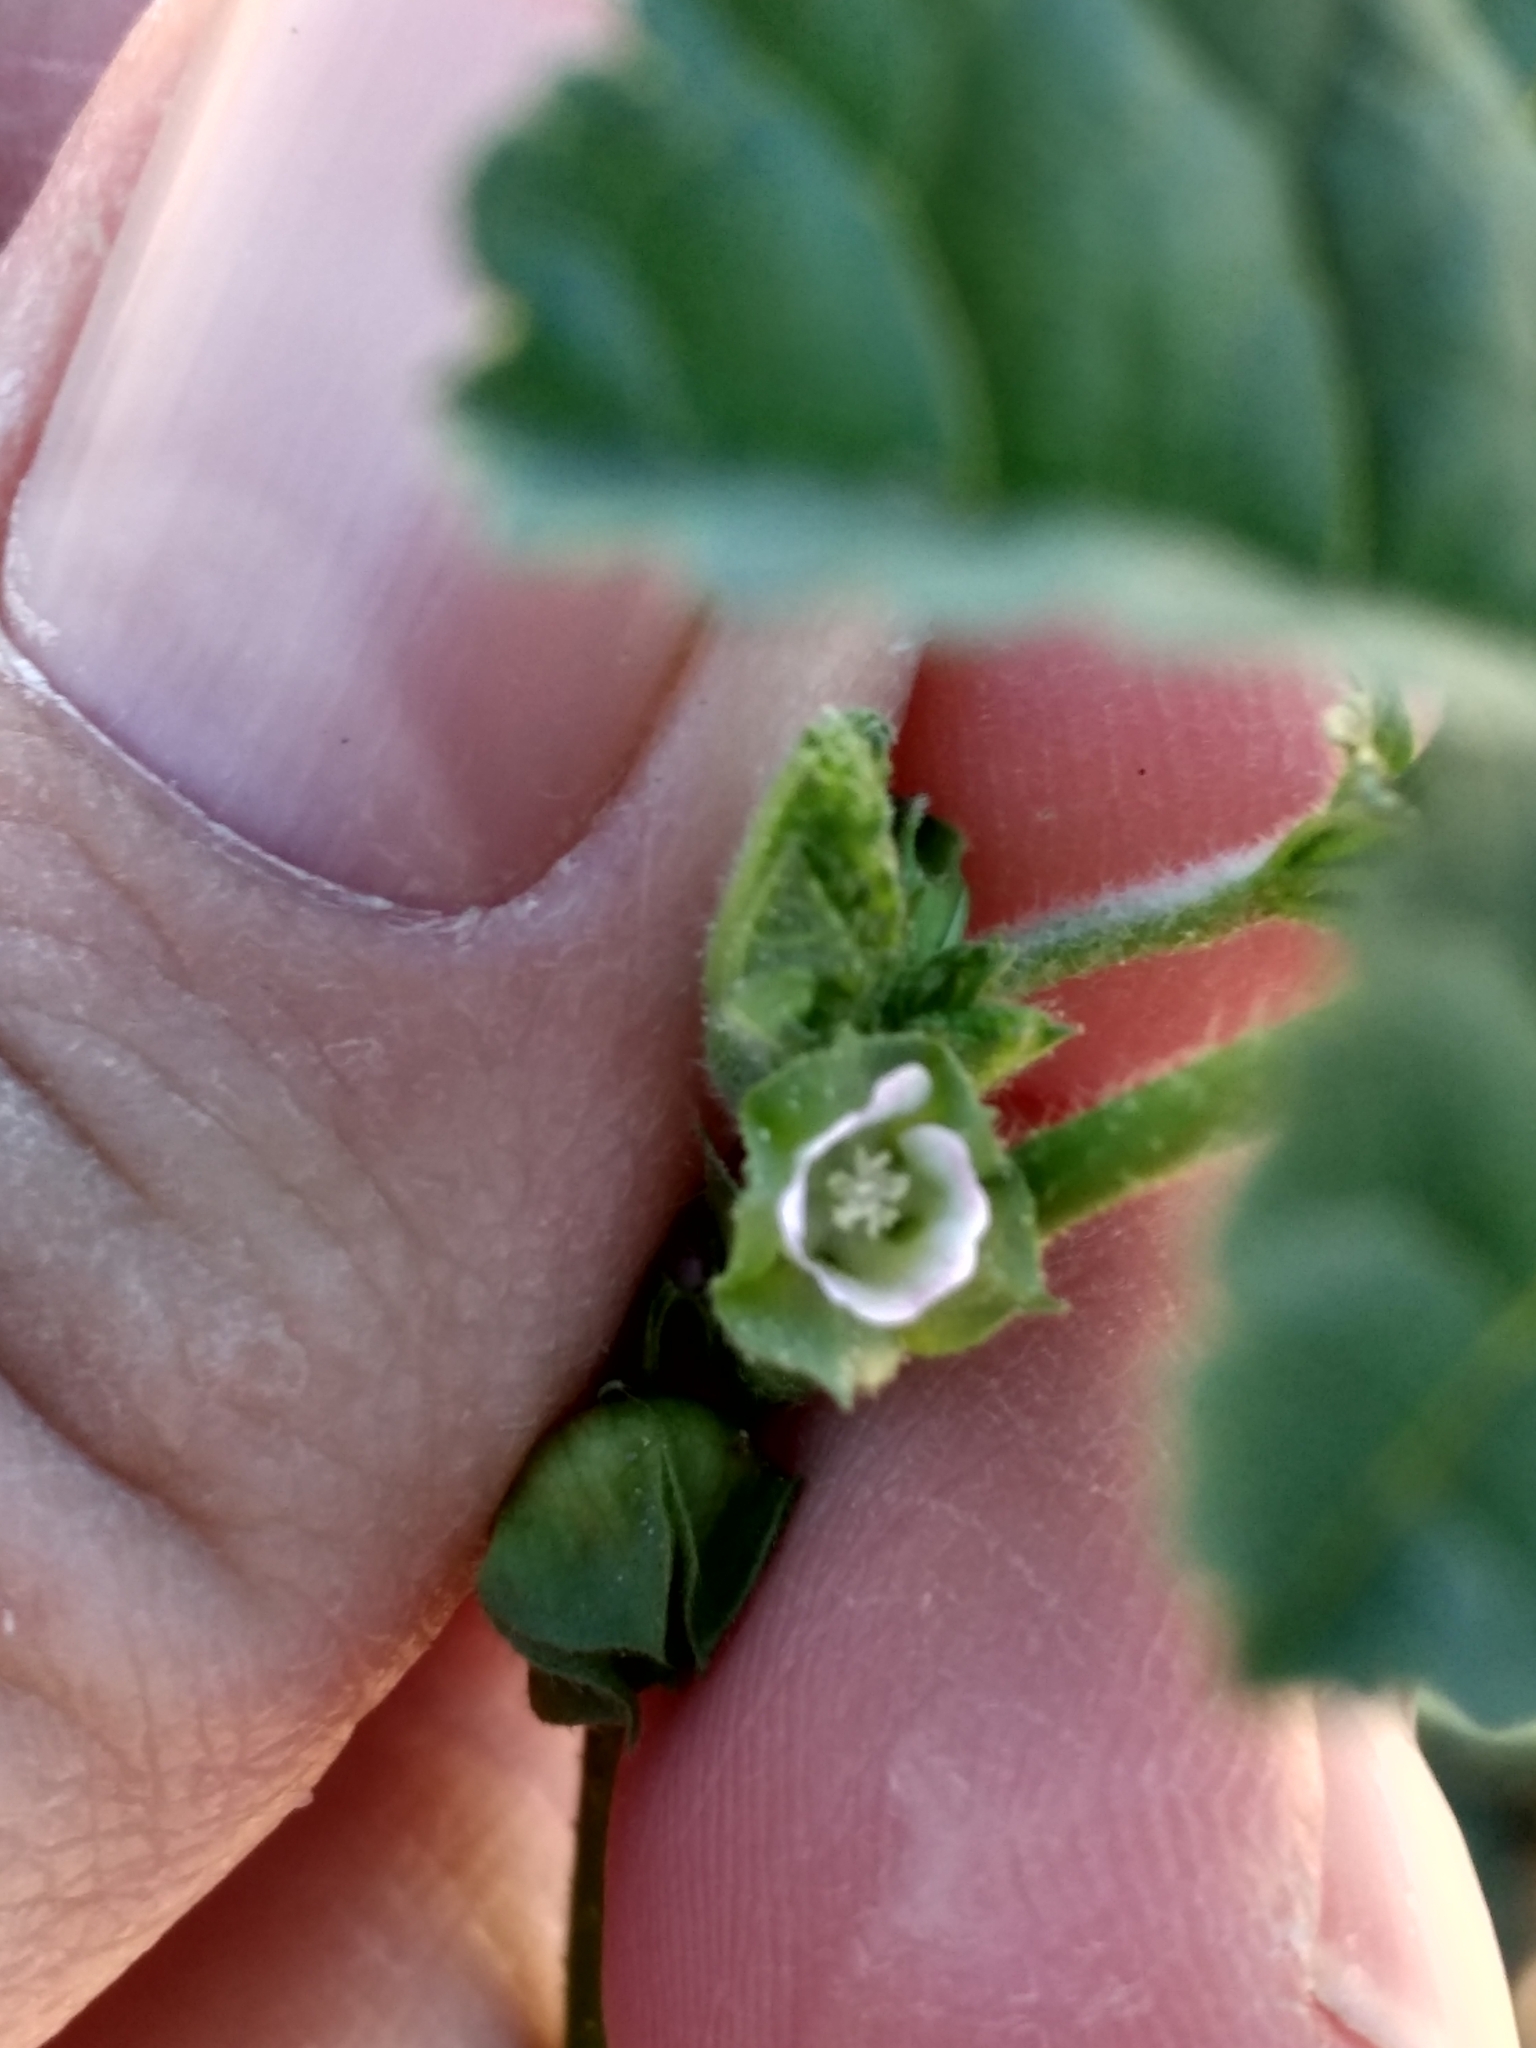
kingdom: Plantae
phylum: Tracheophyta
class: Magnoliopsida
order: Malvales
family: Malvaceae
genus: Malva
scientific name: Malva parviflora
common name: Least mallow
